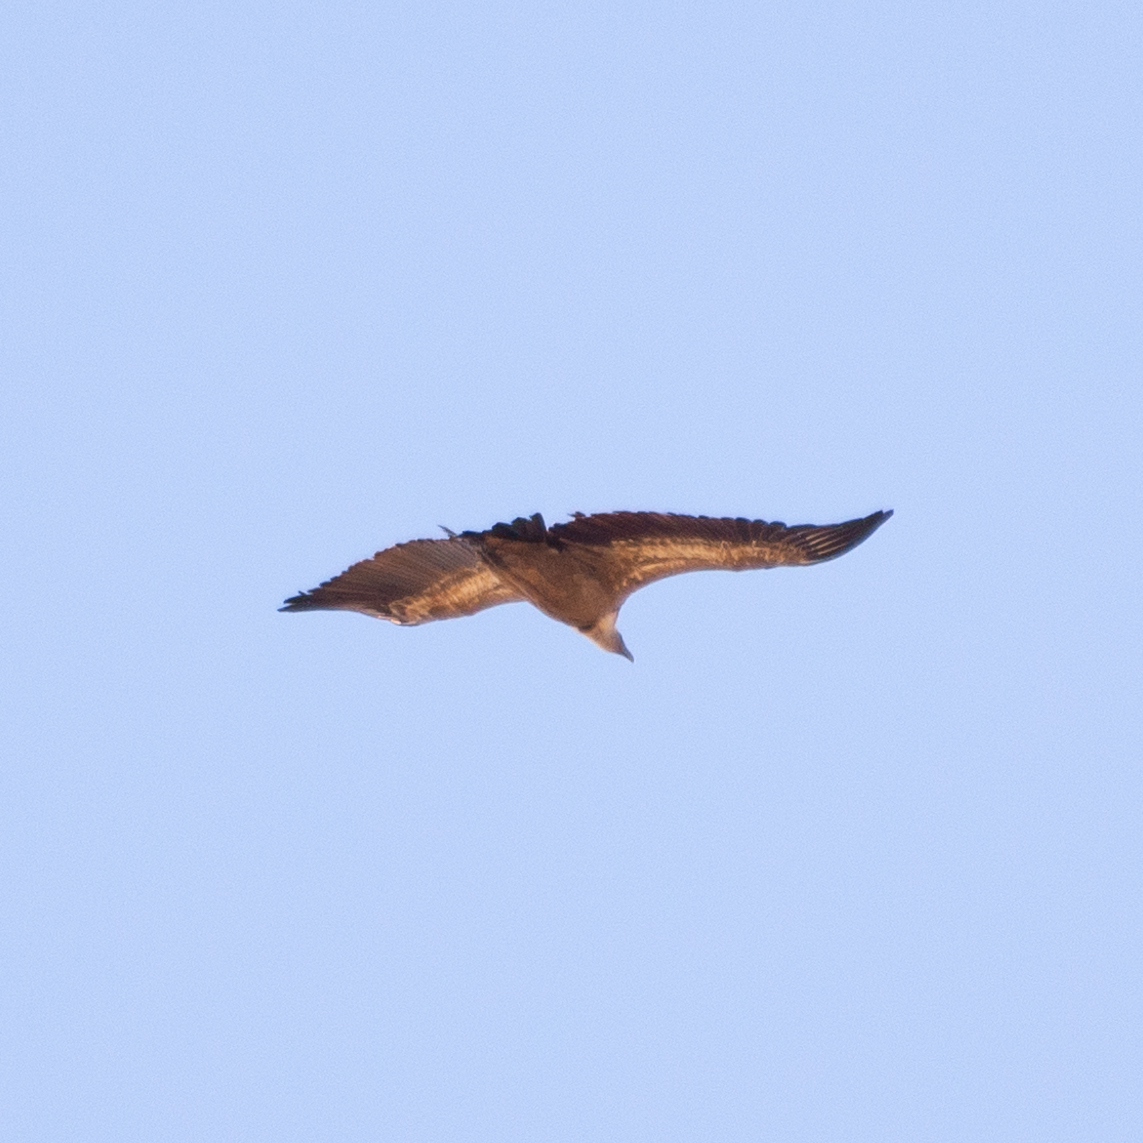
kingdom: Animalia
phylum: Chordata
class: Aves
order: Accipitriformes
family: Accipitridae
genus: Gyps
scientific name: Gyps fulvus
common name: Griffon vulture
